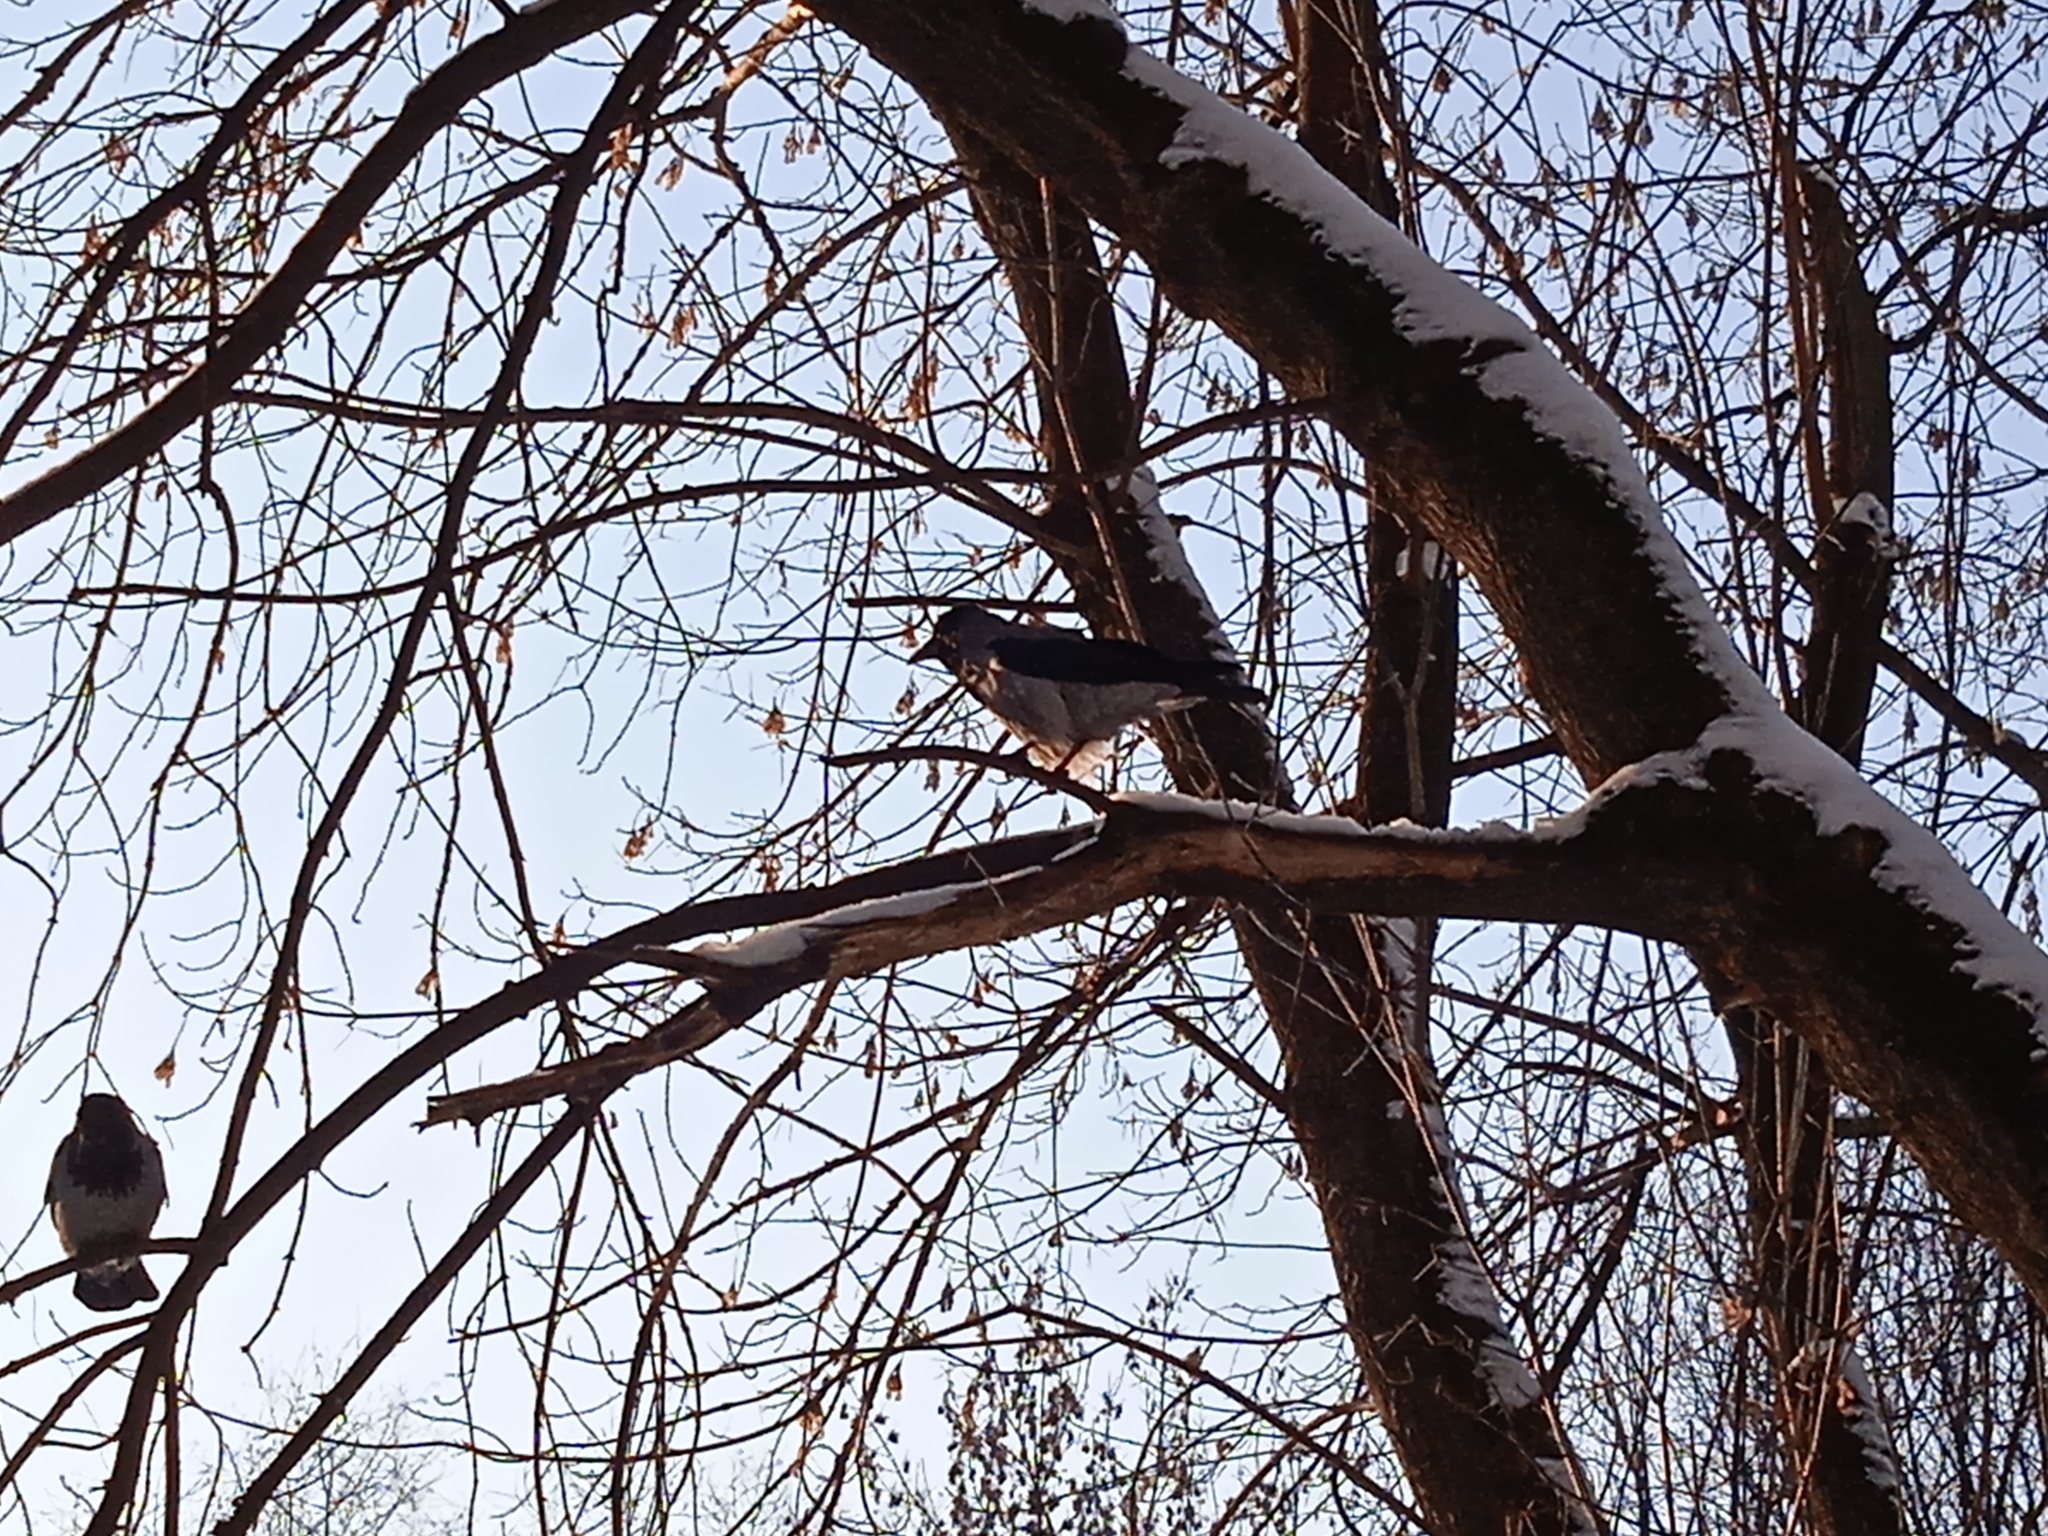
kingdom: Animalia
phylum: Chordata
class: Aves
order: Passeriformes
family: Corvidae
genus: Corvus
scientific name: Corvus cornix
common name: Hooded crow
